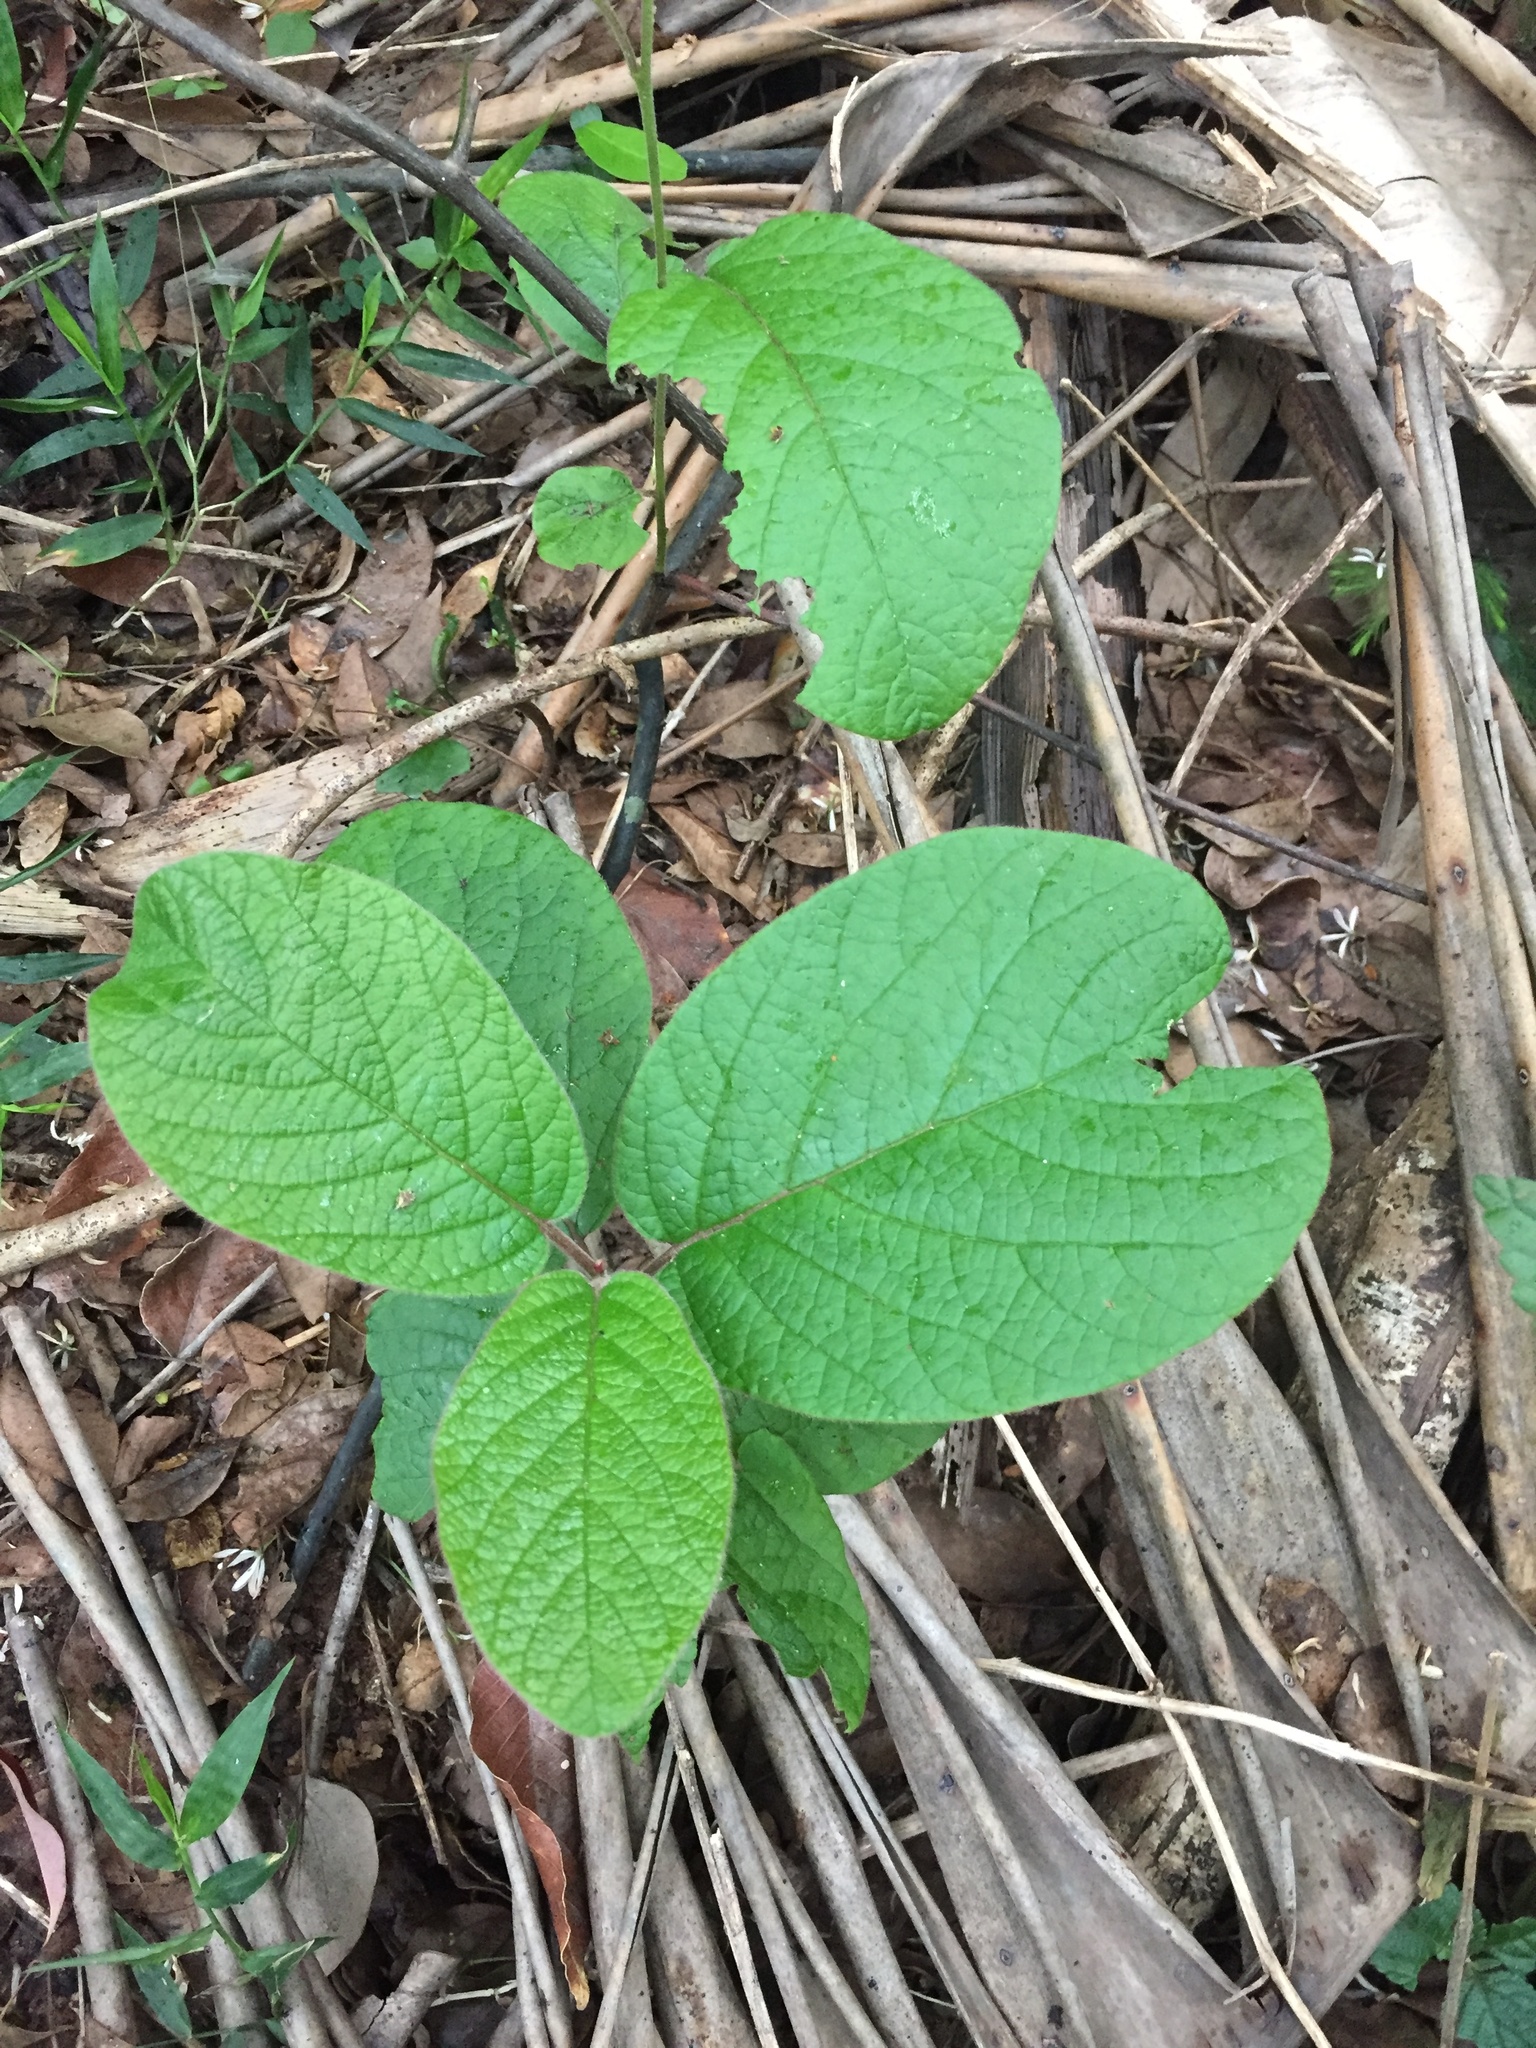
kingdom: Plantae
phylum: Tracheophyta
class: Magnoliopsida
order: Ericales
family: Ebenaceae
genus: Diospyros
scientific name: Diospyros villosa
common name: Hairy star-apple
